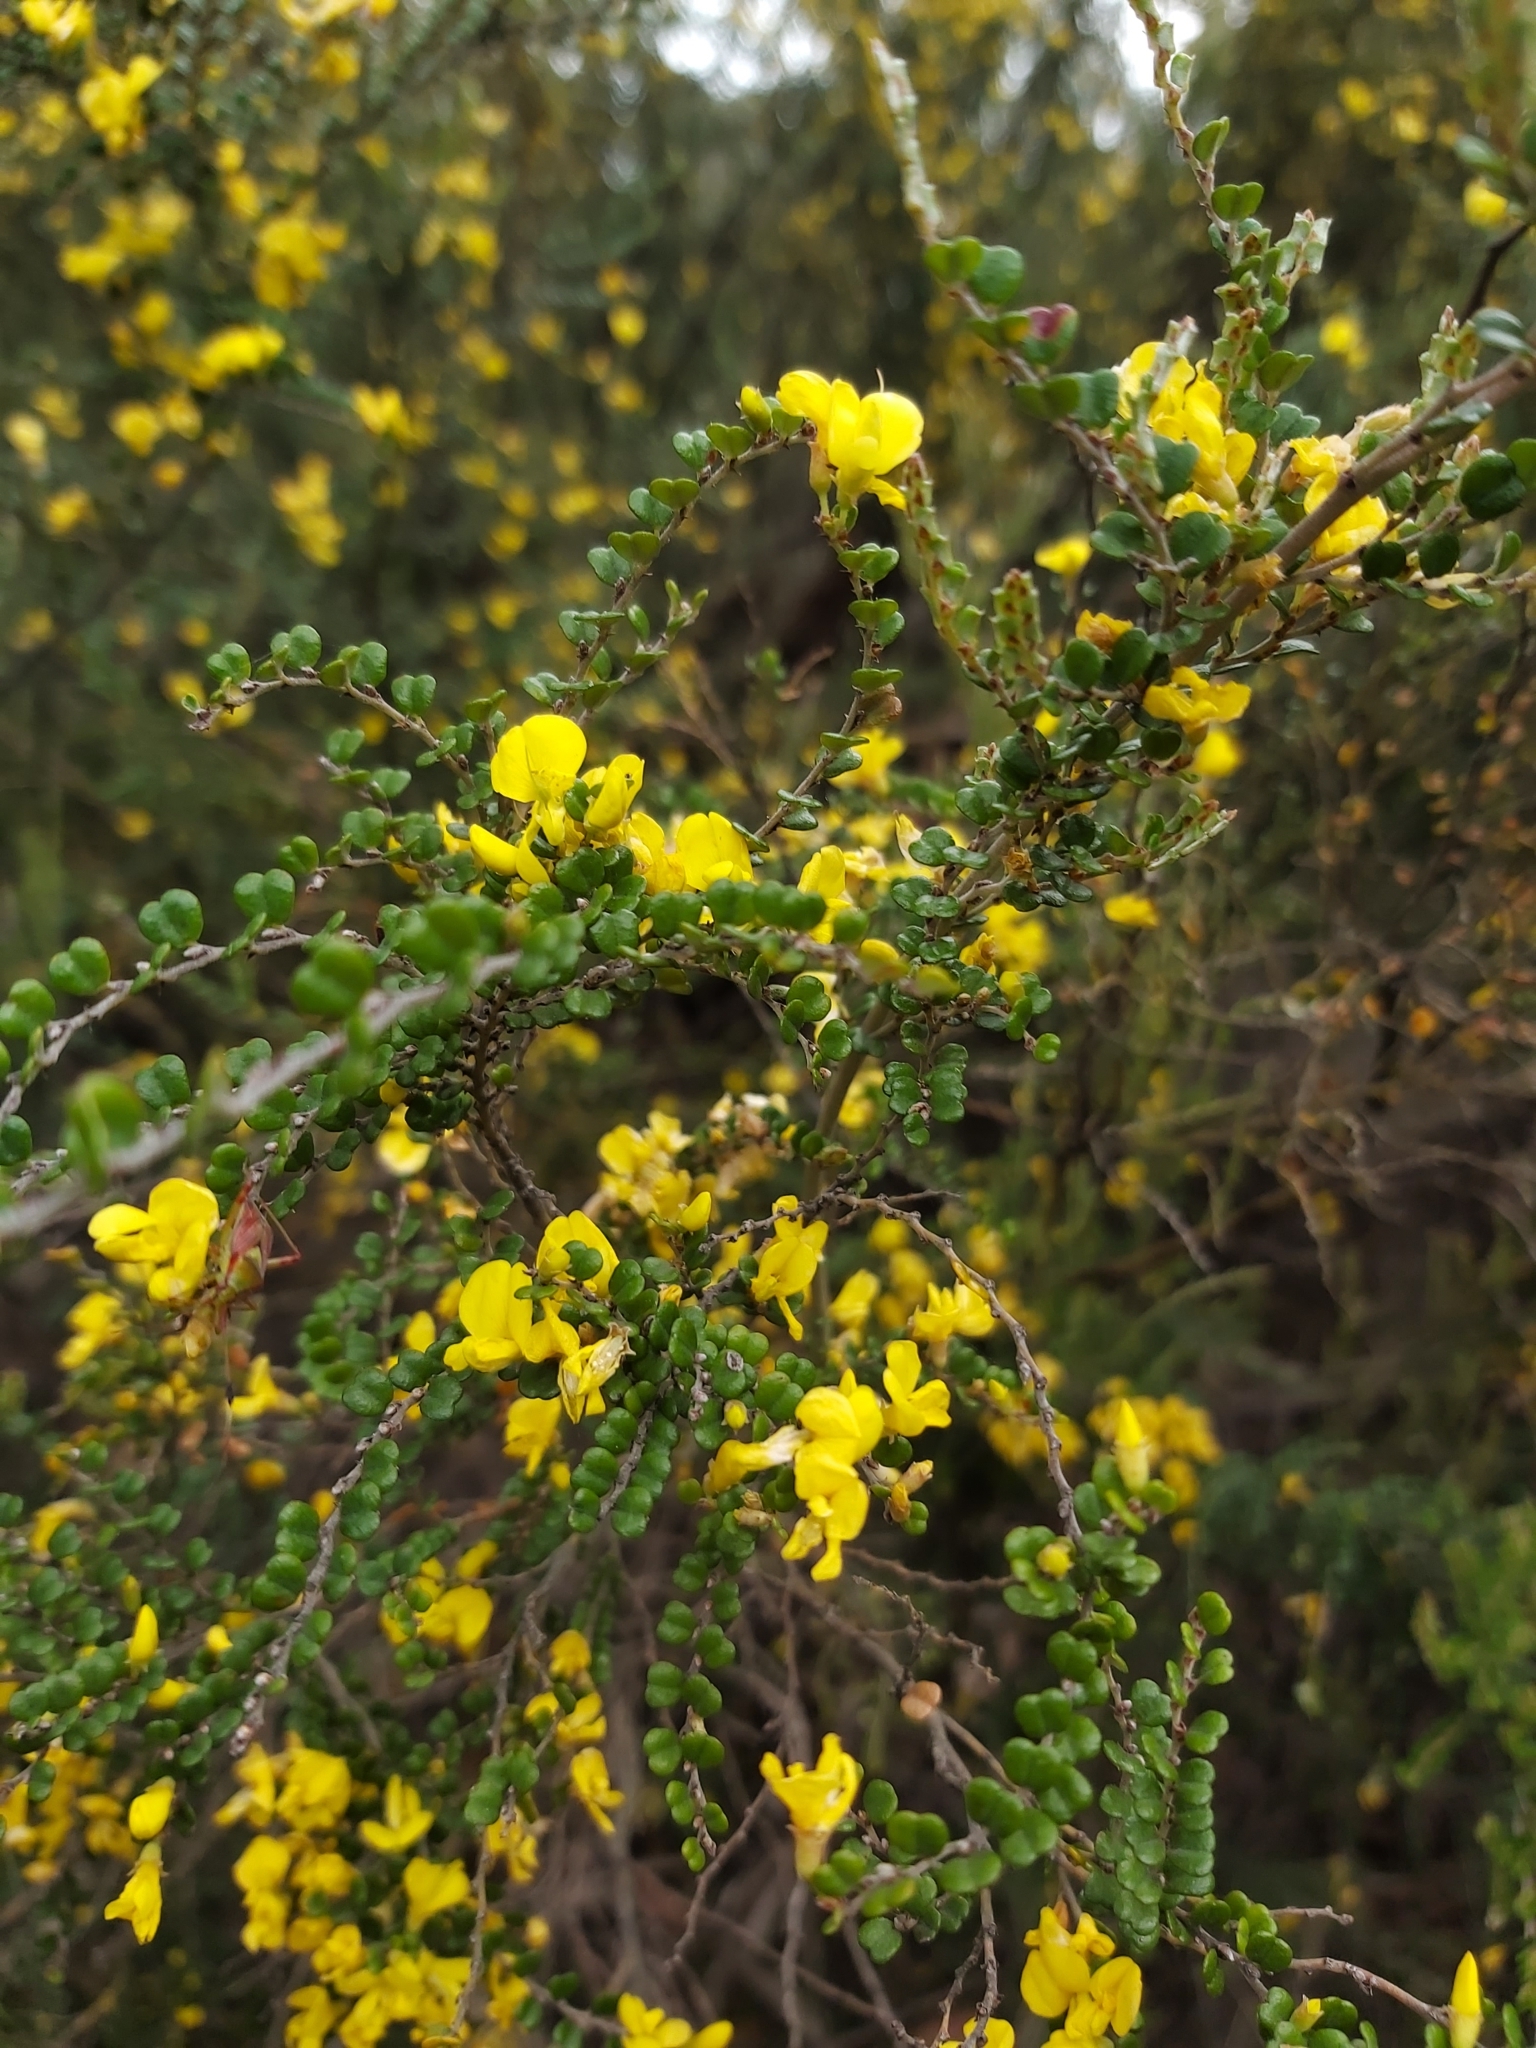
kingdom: Plantae
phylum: Tracheophyta
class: Magnoliopsida
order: Fabales
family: Fabaceae
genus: Bossiaea
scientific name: Bossiaea sericea
